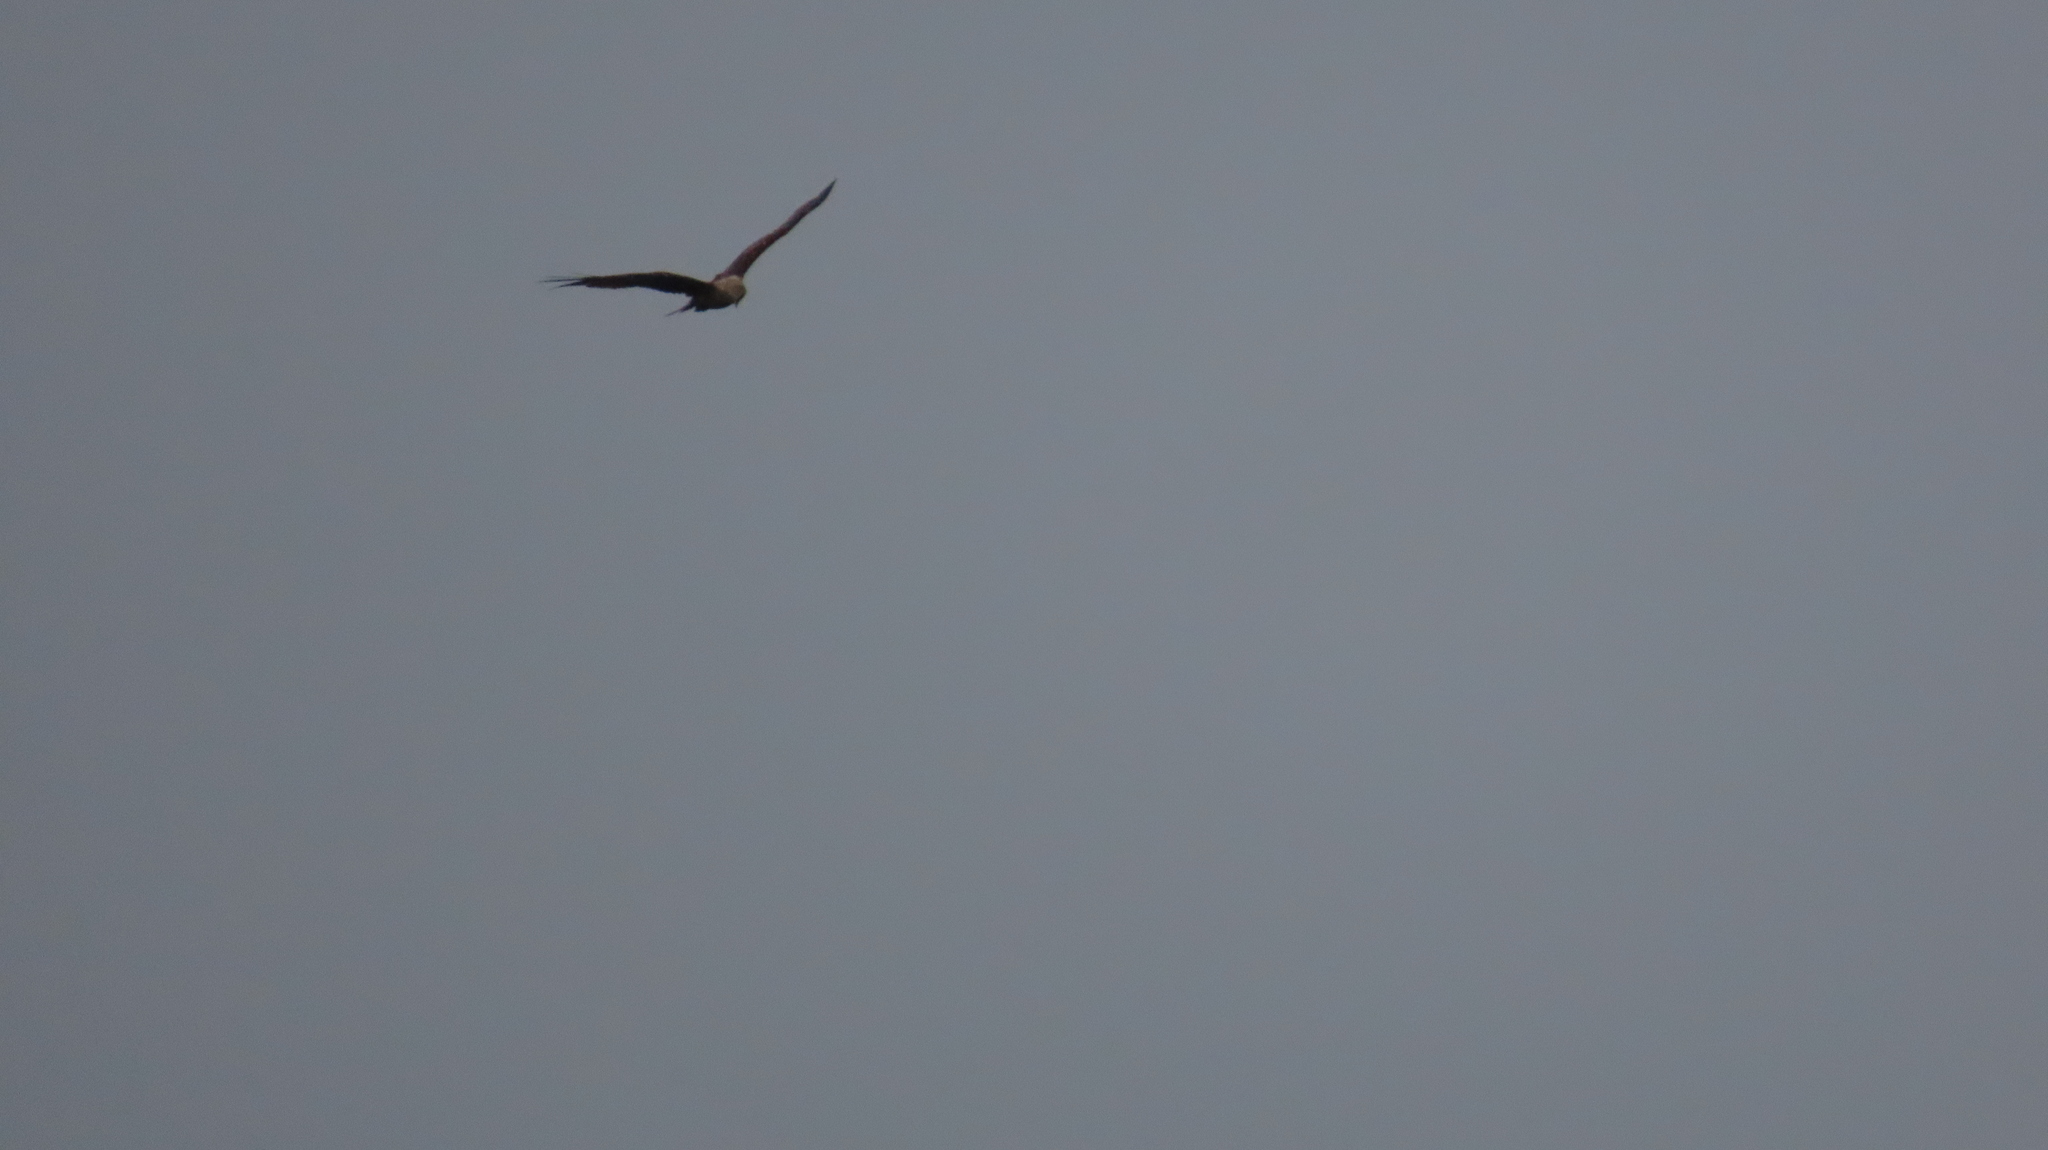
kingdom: Animalia
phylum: Chordata
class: Aves
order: Accipitriformes
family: Accipitridae
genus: Haliastur
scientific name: Haliastur indus
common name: Brahminy kite
